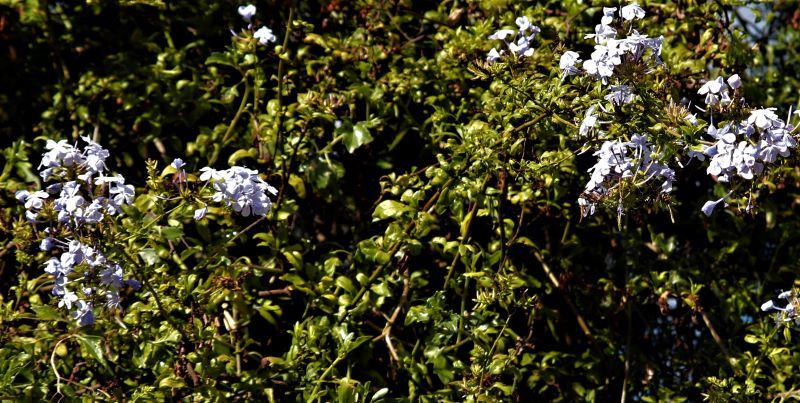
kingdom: Plantae
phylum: Tracheophyta
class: Magnoliopsida
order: Caryophyllales
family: Plumbaginaceae
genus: Plumbago
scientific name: Plumbago auriculata
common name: Cape leadwort
